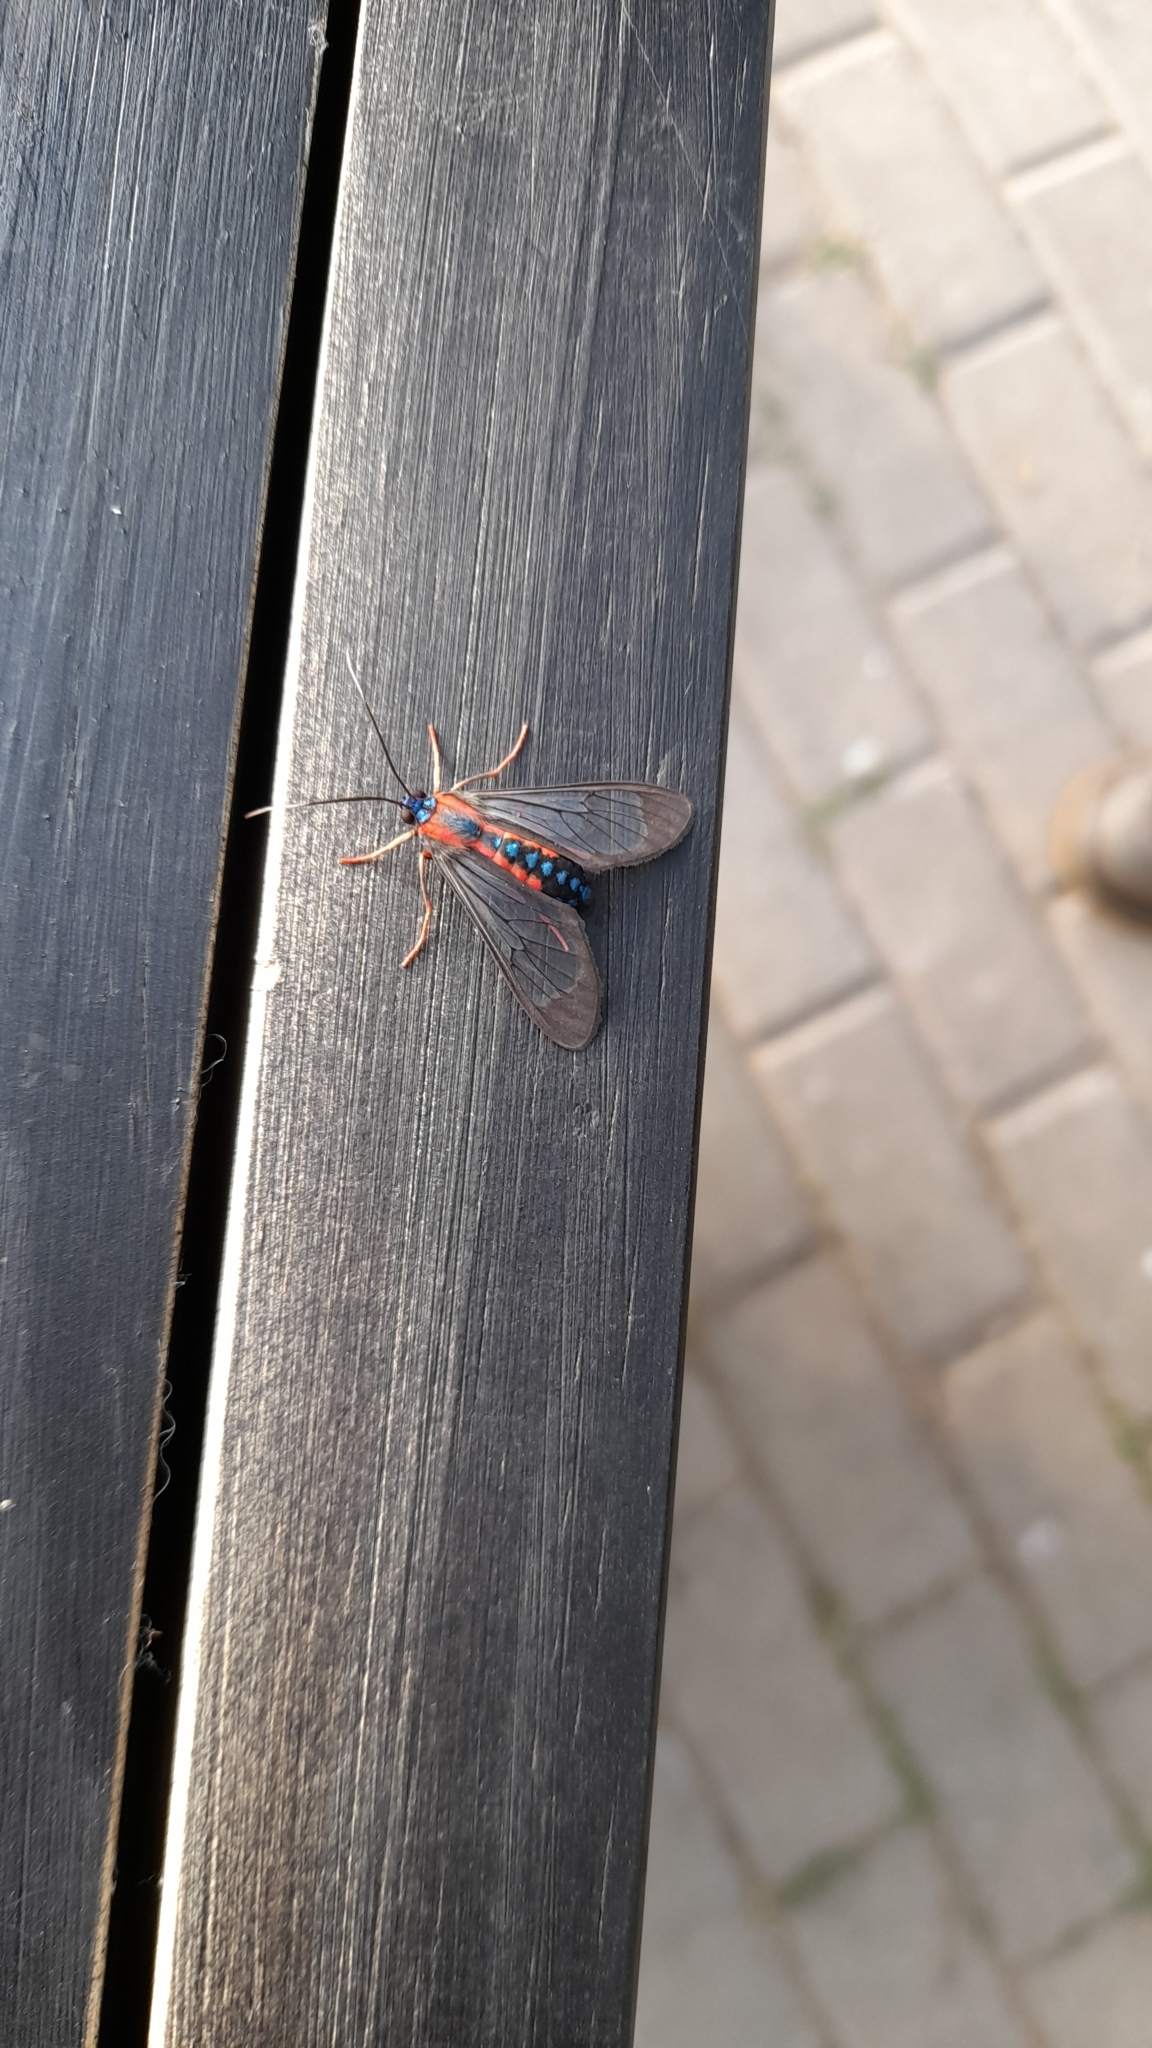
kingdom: Animalia
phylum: Arthropoda
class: Insecta
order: Lepidoptera
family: Erebidae
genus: Cosmosoma
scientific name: Cosmosoma auge
